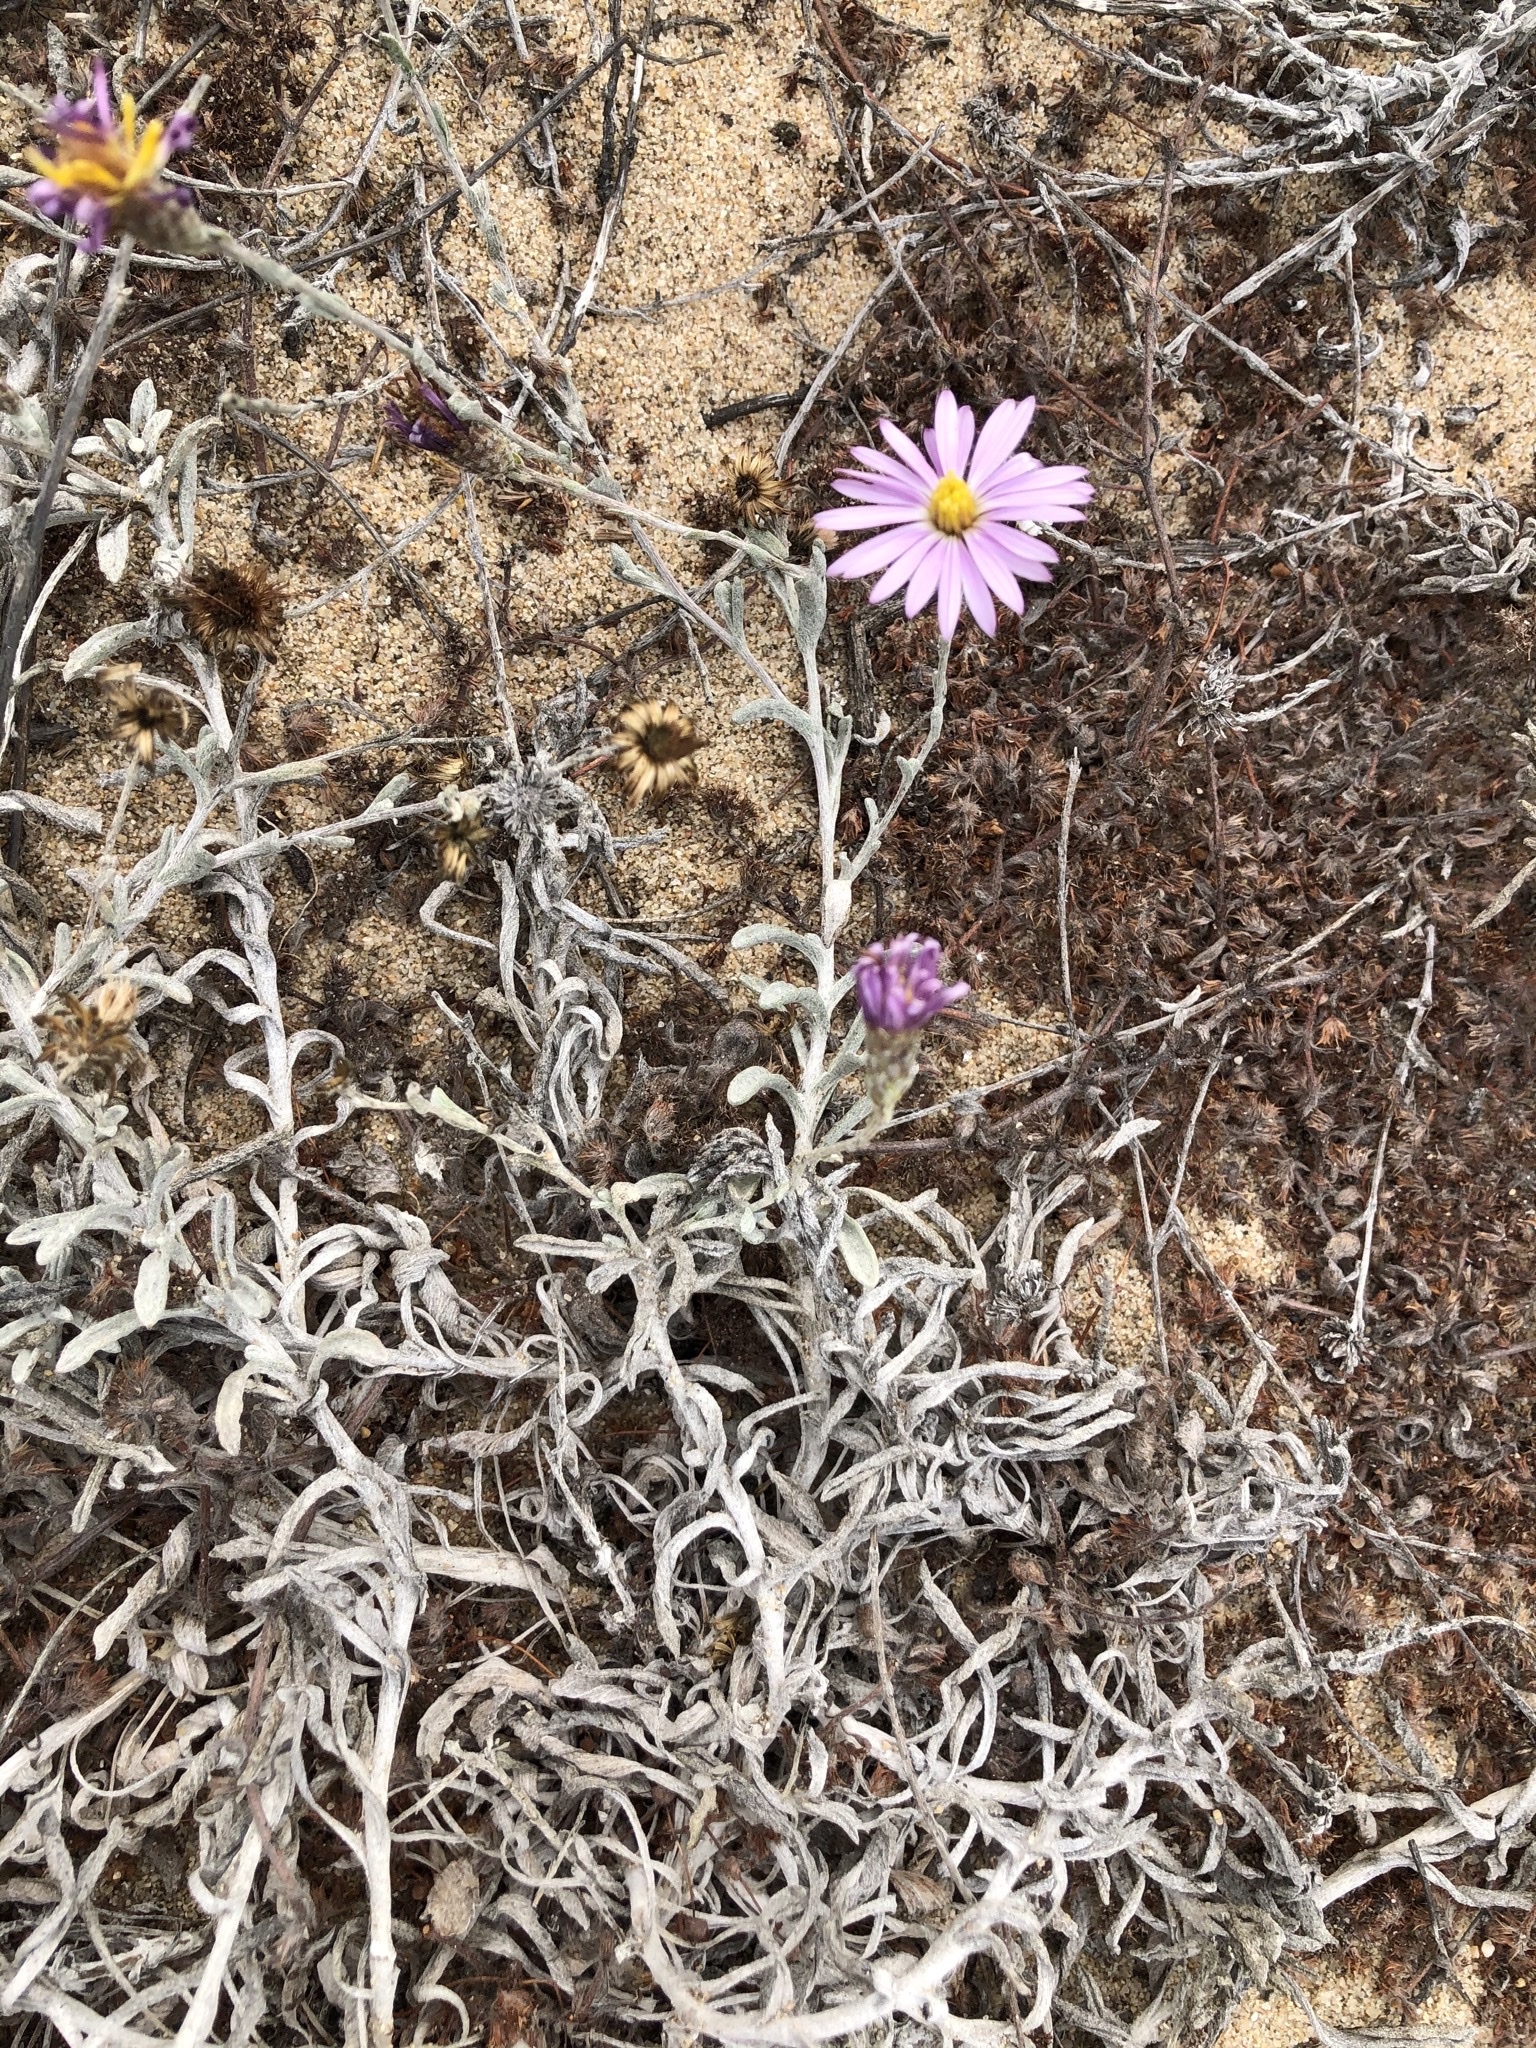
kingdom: Plantae
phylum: Tracheophyta
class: Magnoliopsida
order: Asterales
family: Asteraceae
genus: Corethrogyne
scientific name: Corethrogyne filaginifolia
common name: Sand-aster
